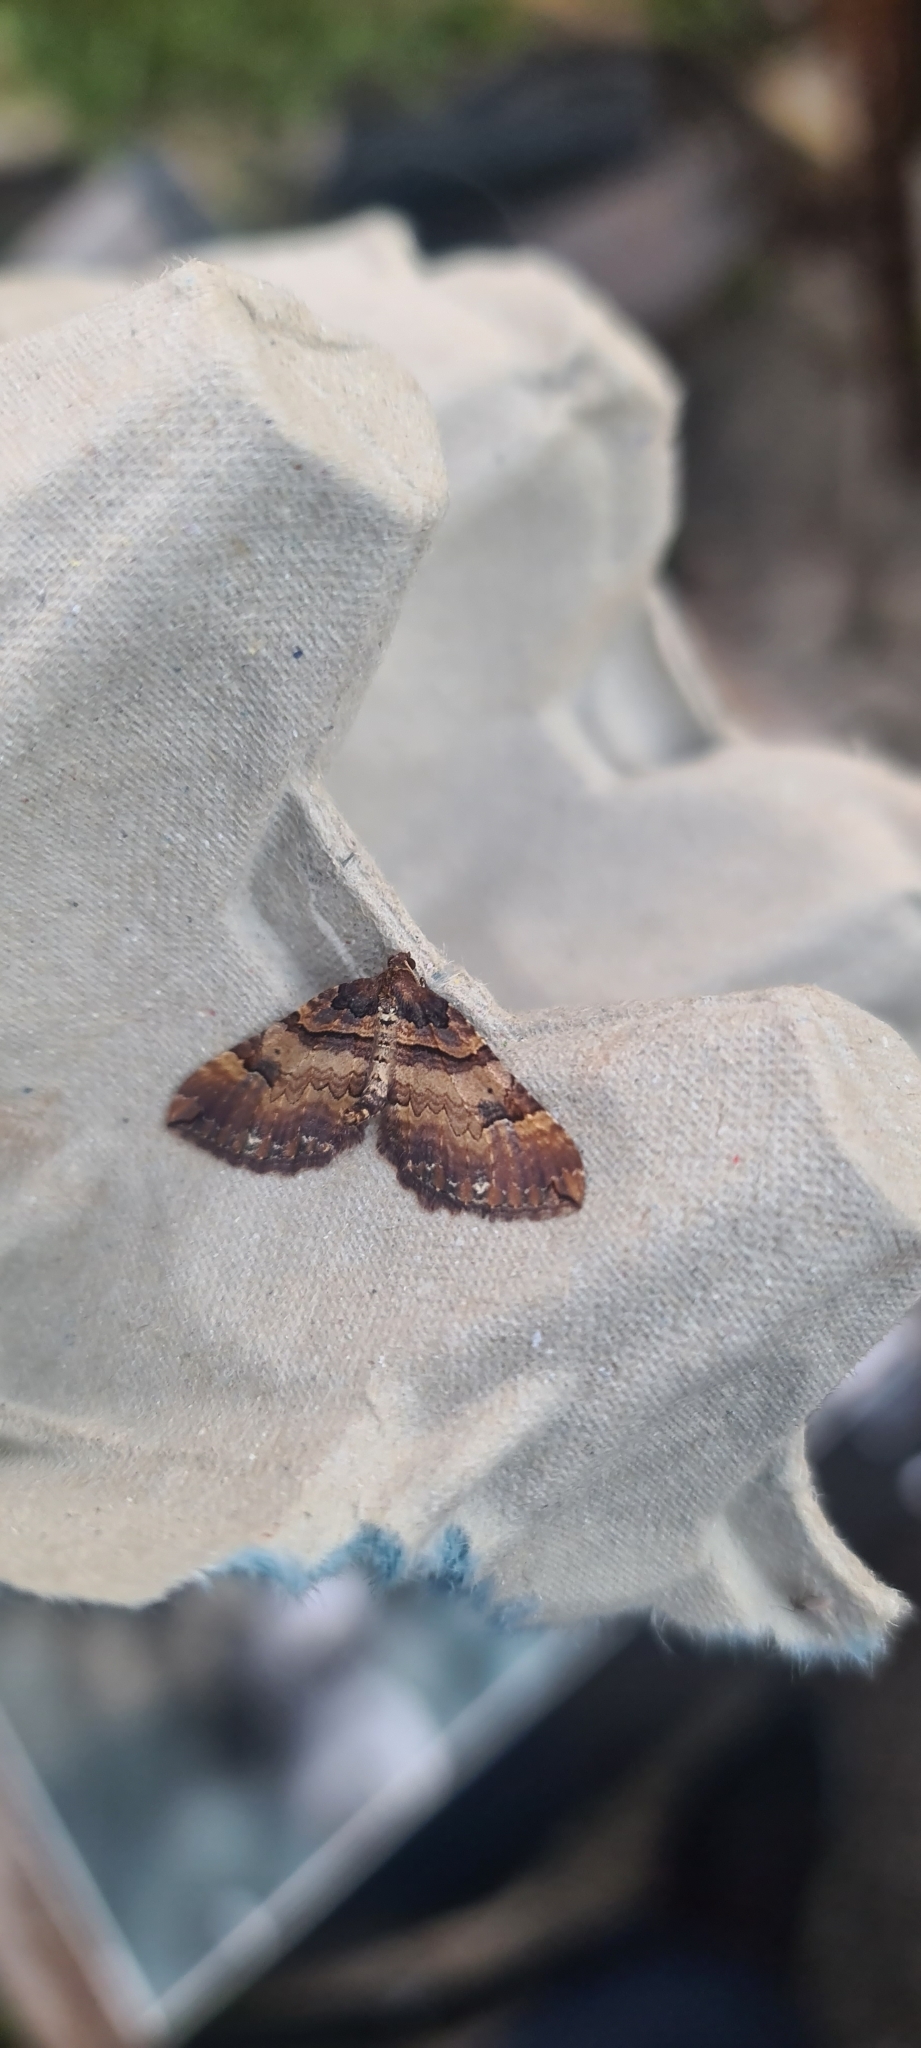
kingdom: Animalia
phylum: Arthropoda
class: Insecta
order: Lepidoptera
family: Geometridae
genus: Anticlea
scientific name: Anticlea badiata
